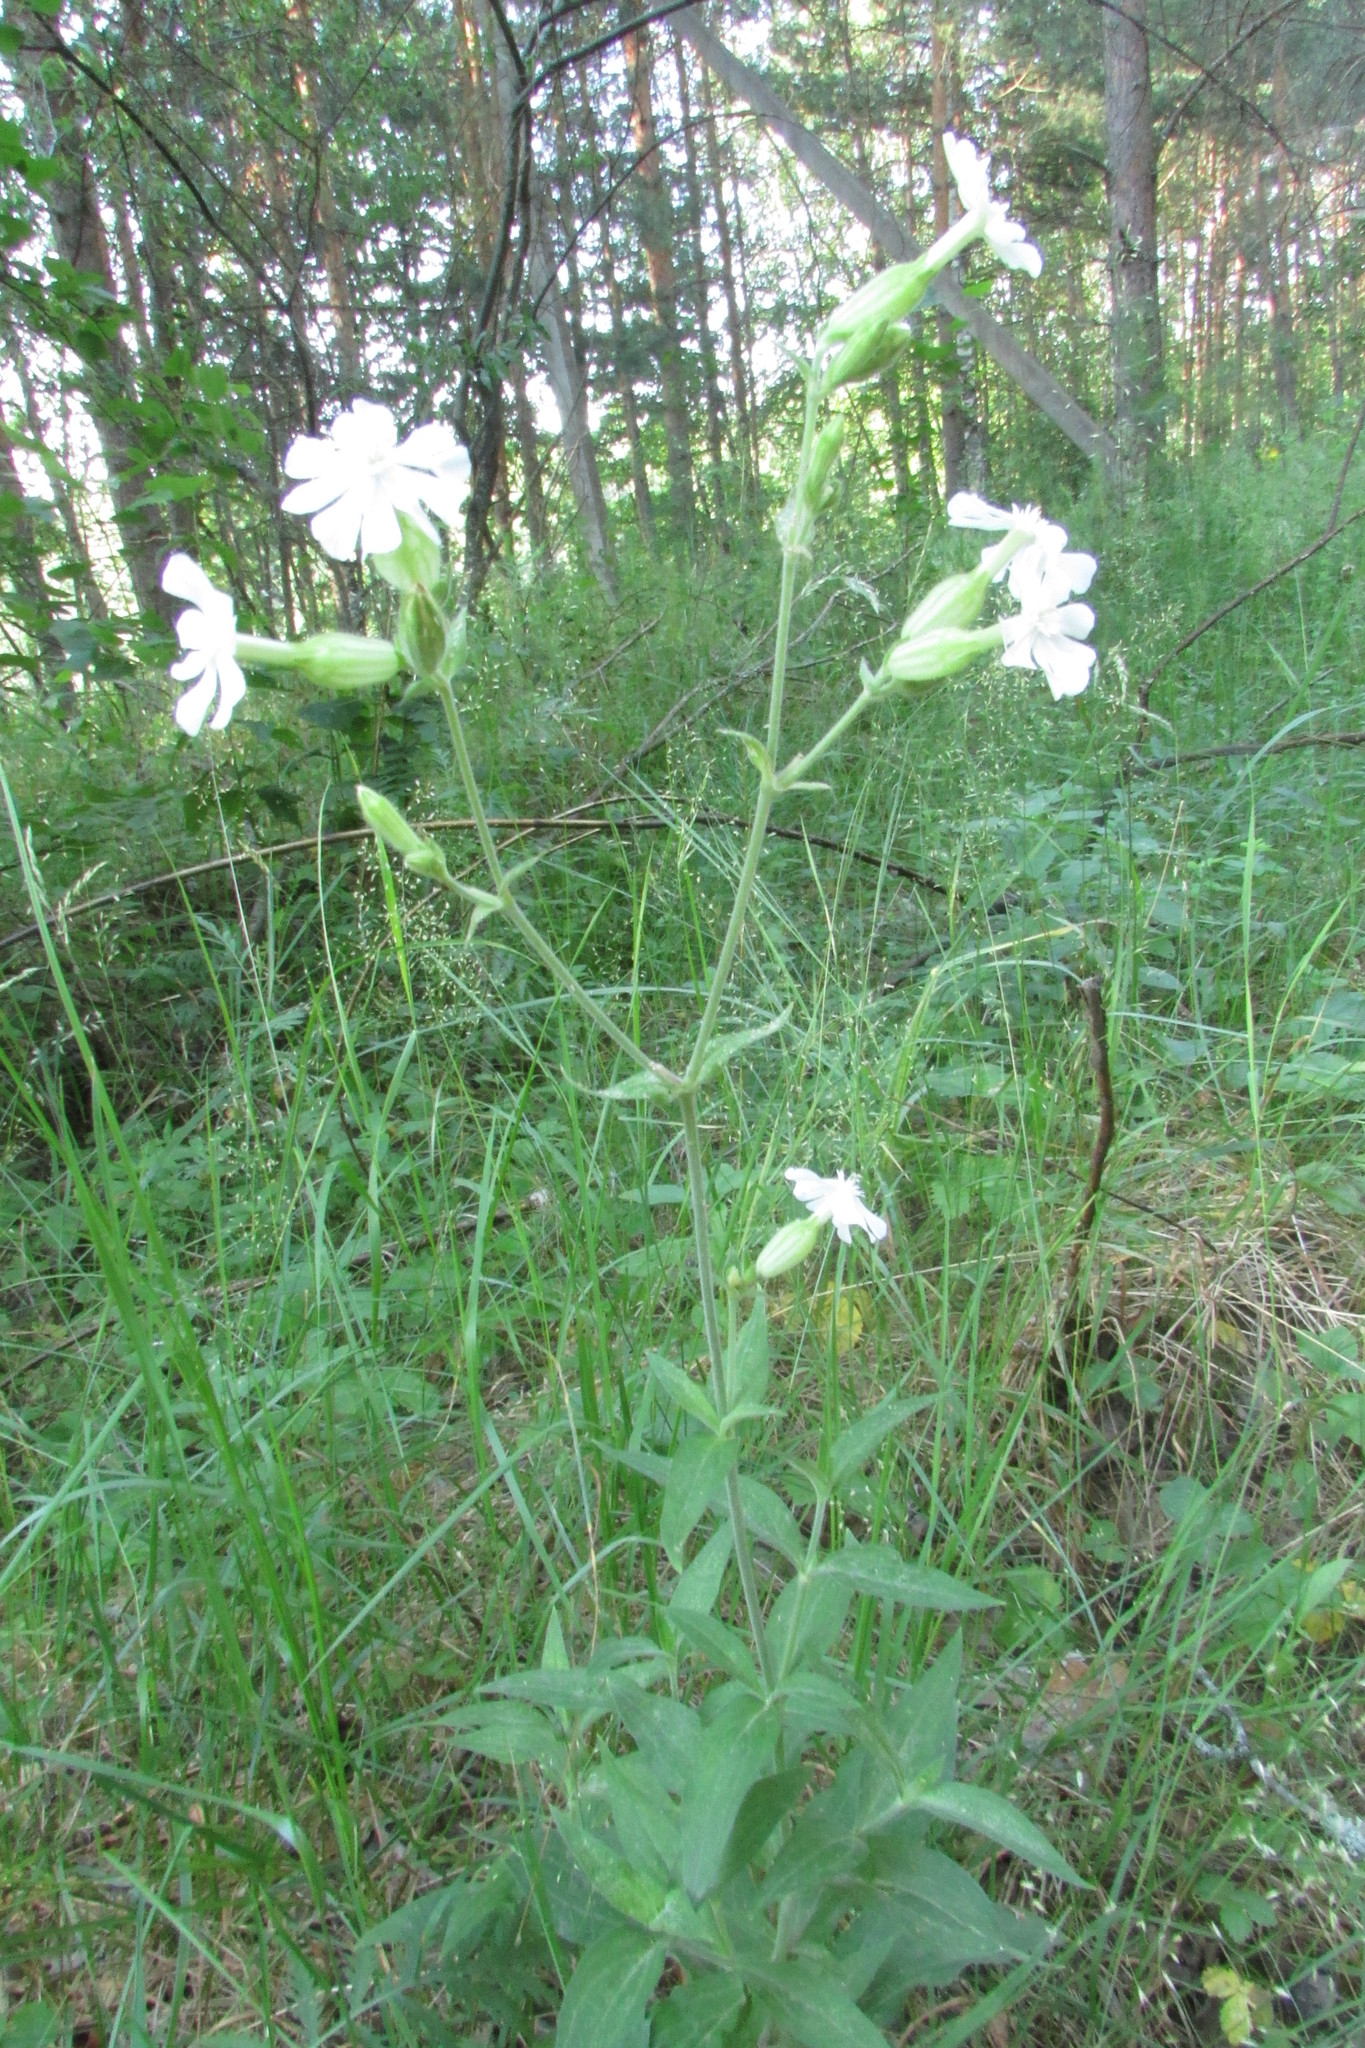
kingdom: Plantae
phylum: Tracheophyta
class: Magnoliopsida
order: Caryophyllales
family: Caryophyllaceae
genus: Silene
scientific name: Silene latifolia
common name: White campion
